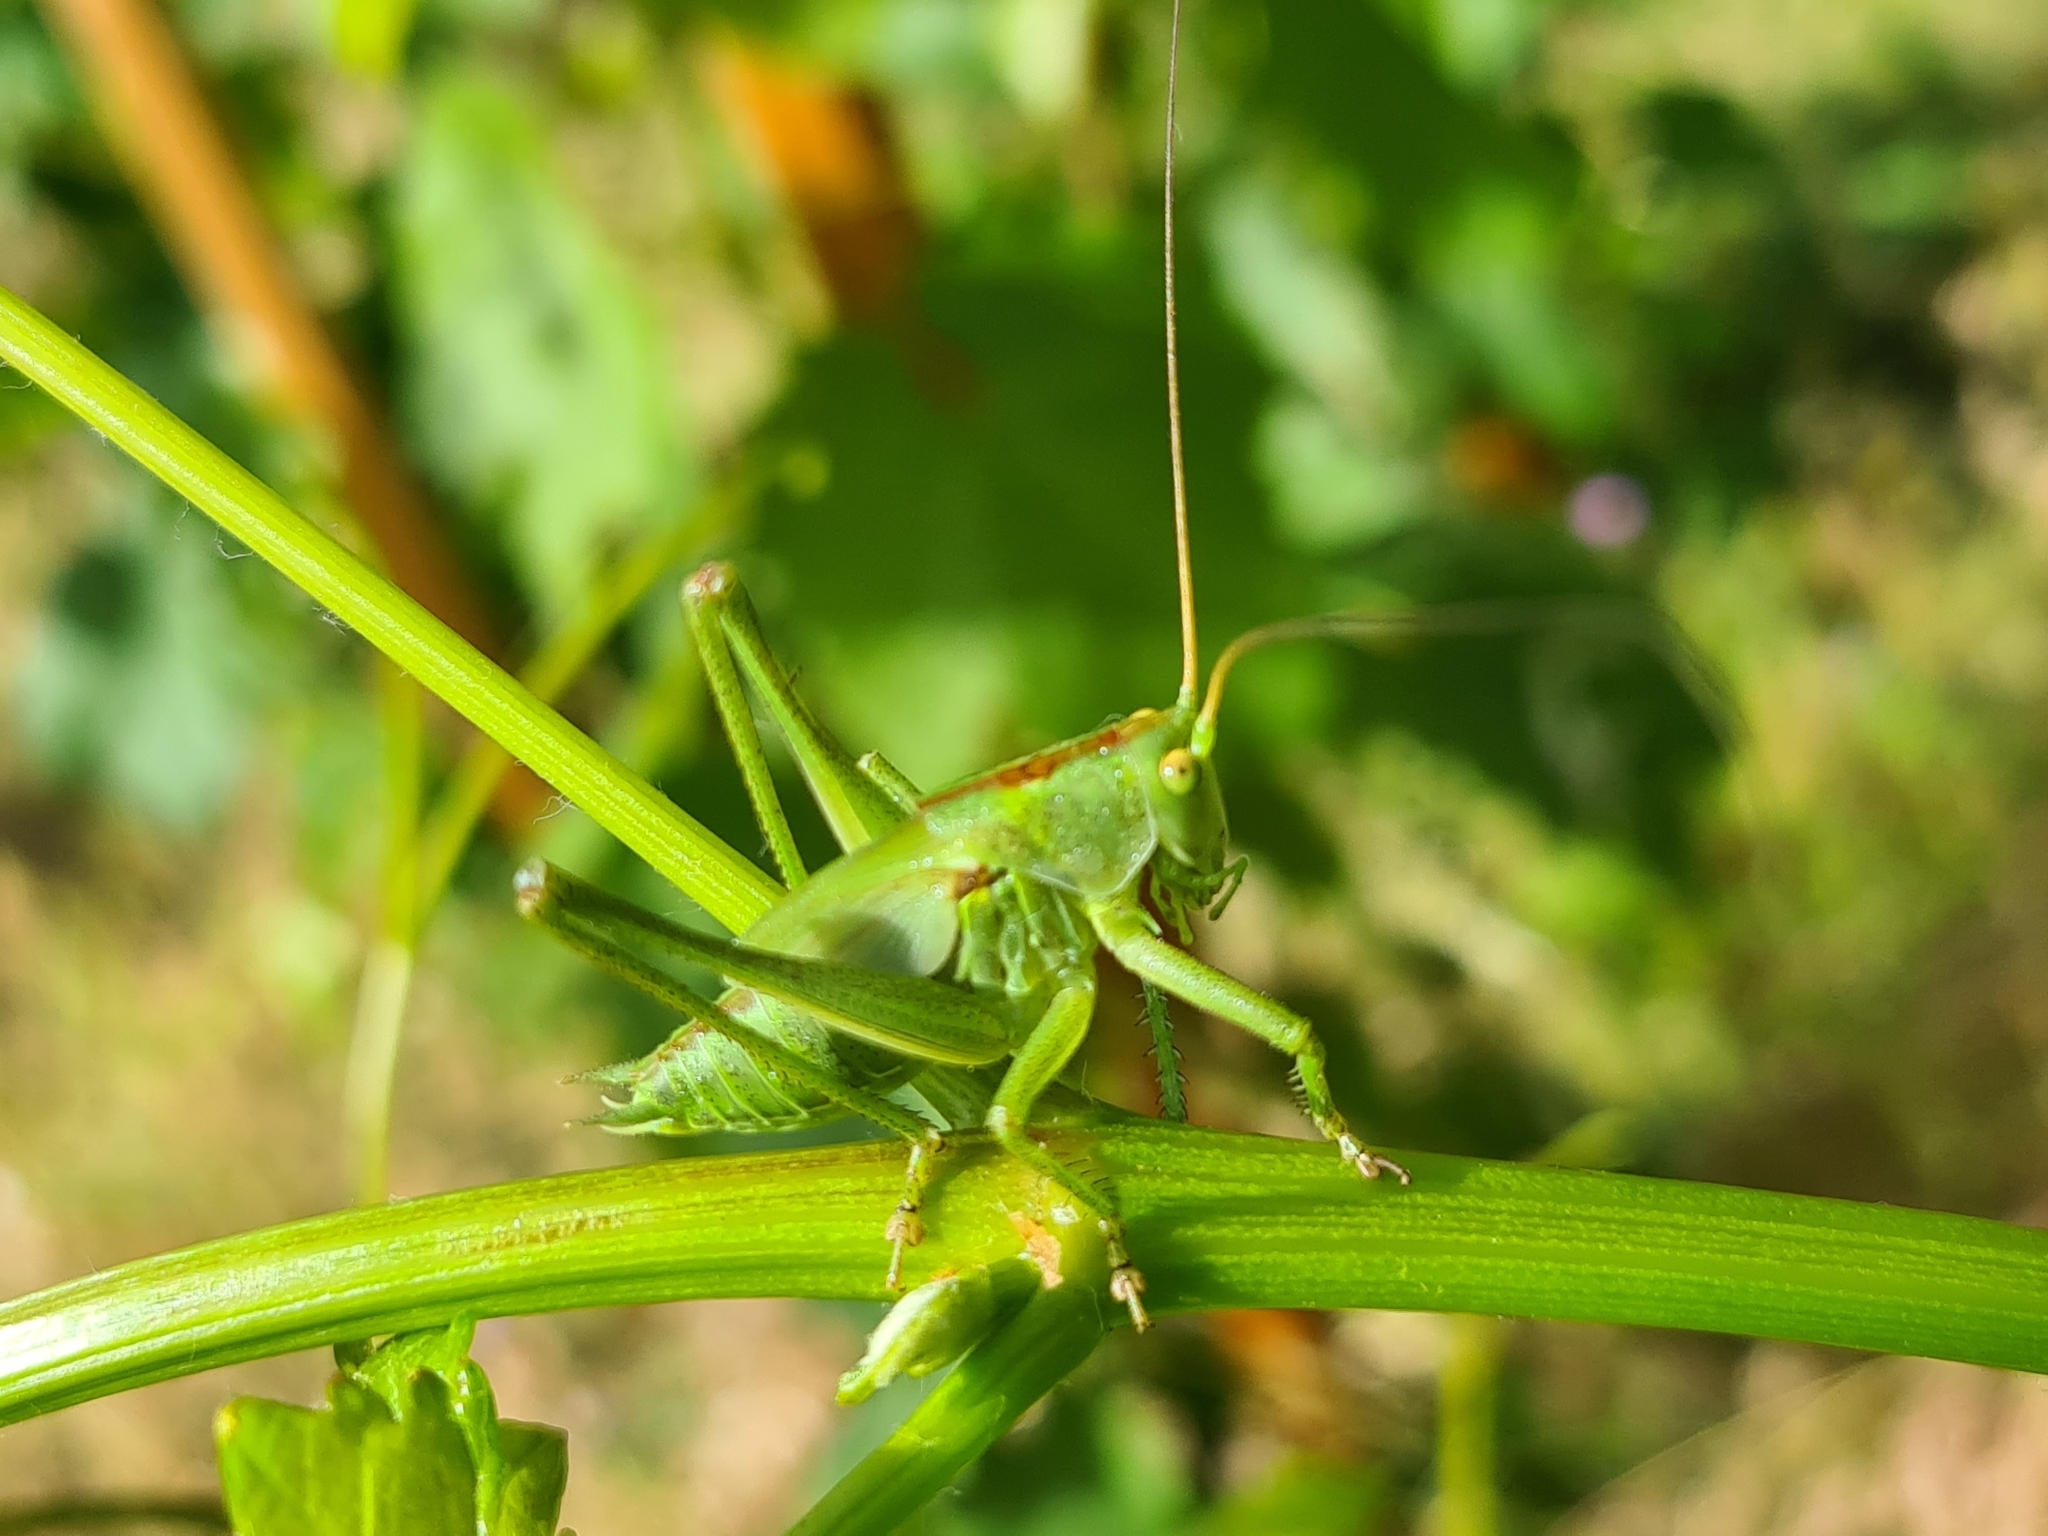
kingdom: Animalia
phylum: Arthropoda
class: Insecta
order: Orthoptera
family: Tettigoniidae
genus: Tettigonia
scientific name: Tettigonia viridissima
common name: Great green bush-cricket
